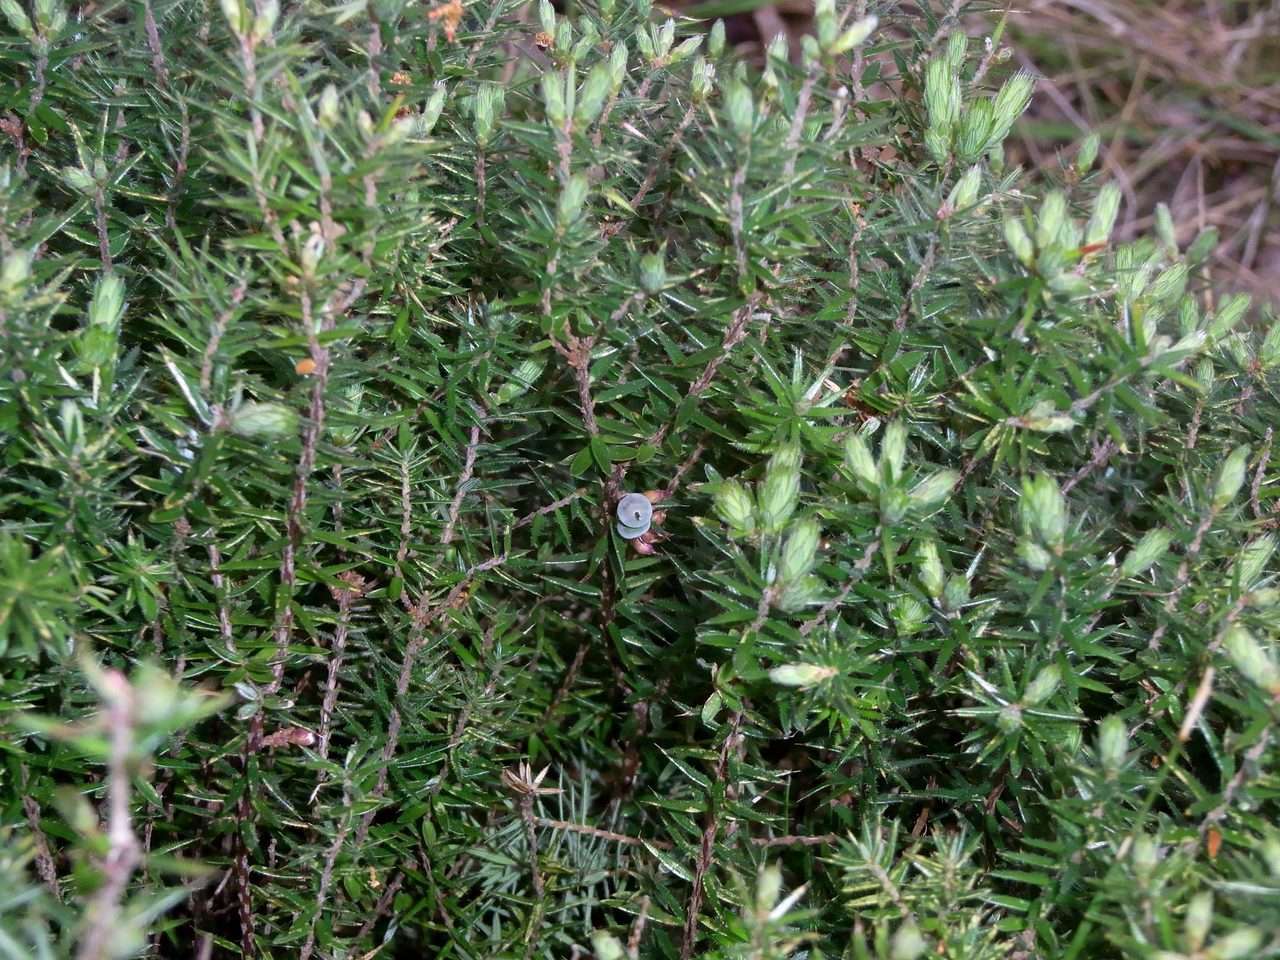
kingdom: Plantae
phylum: Tracheophyta
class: Magnoliopsida
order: Ericales
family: Ericaceae
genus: Acrotriche
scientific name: Acrotriche serrulata
